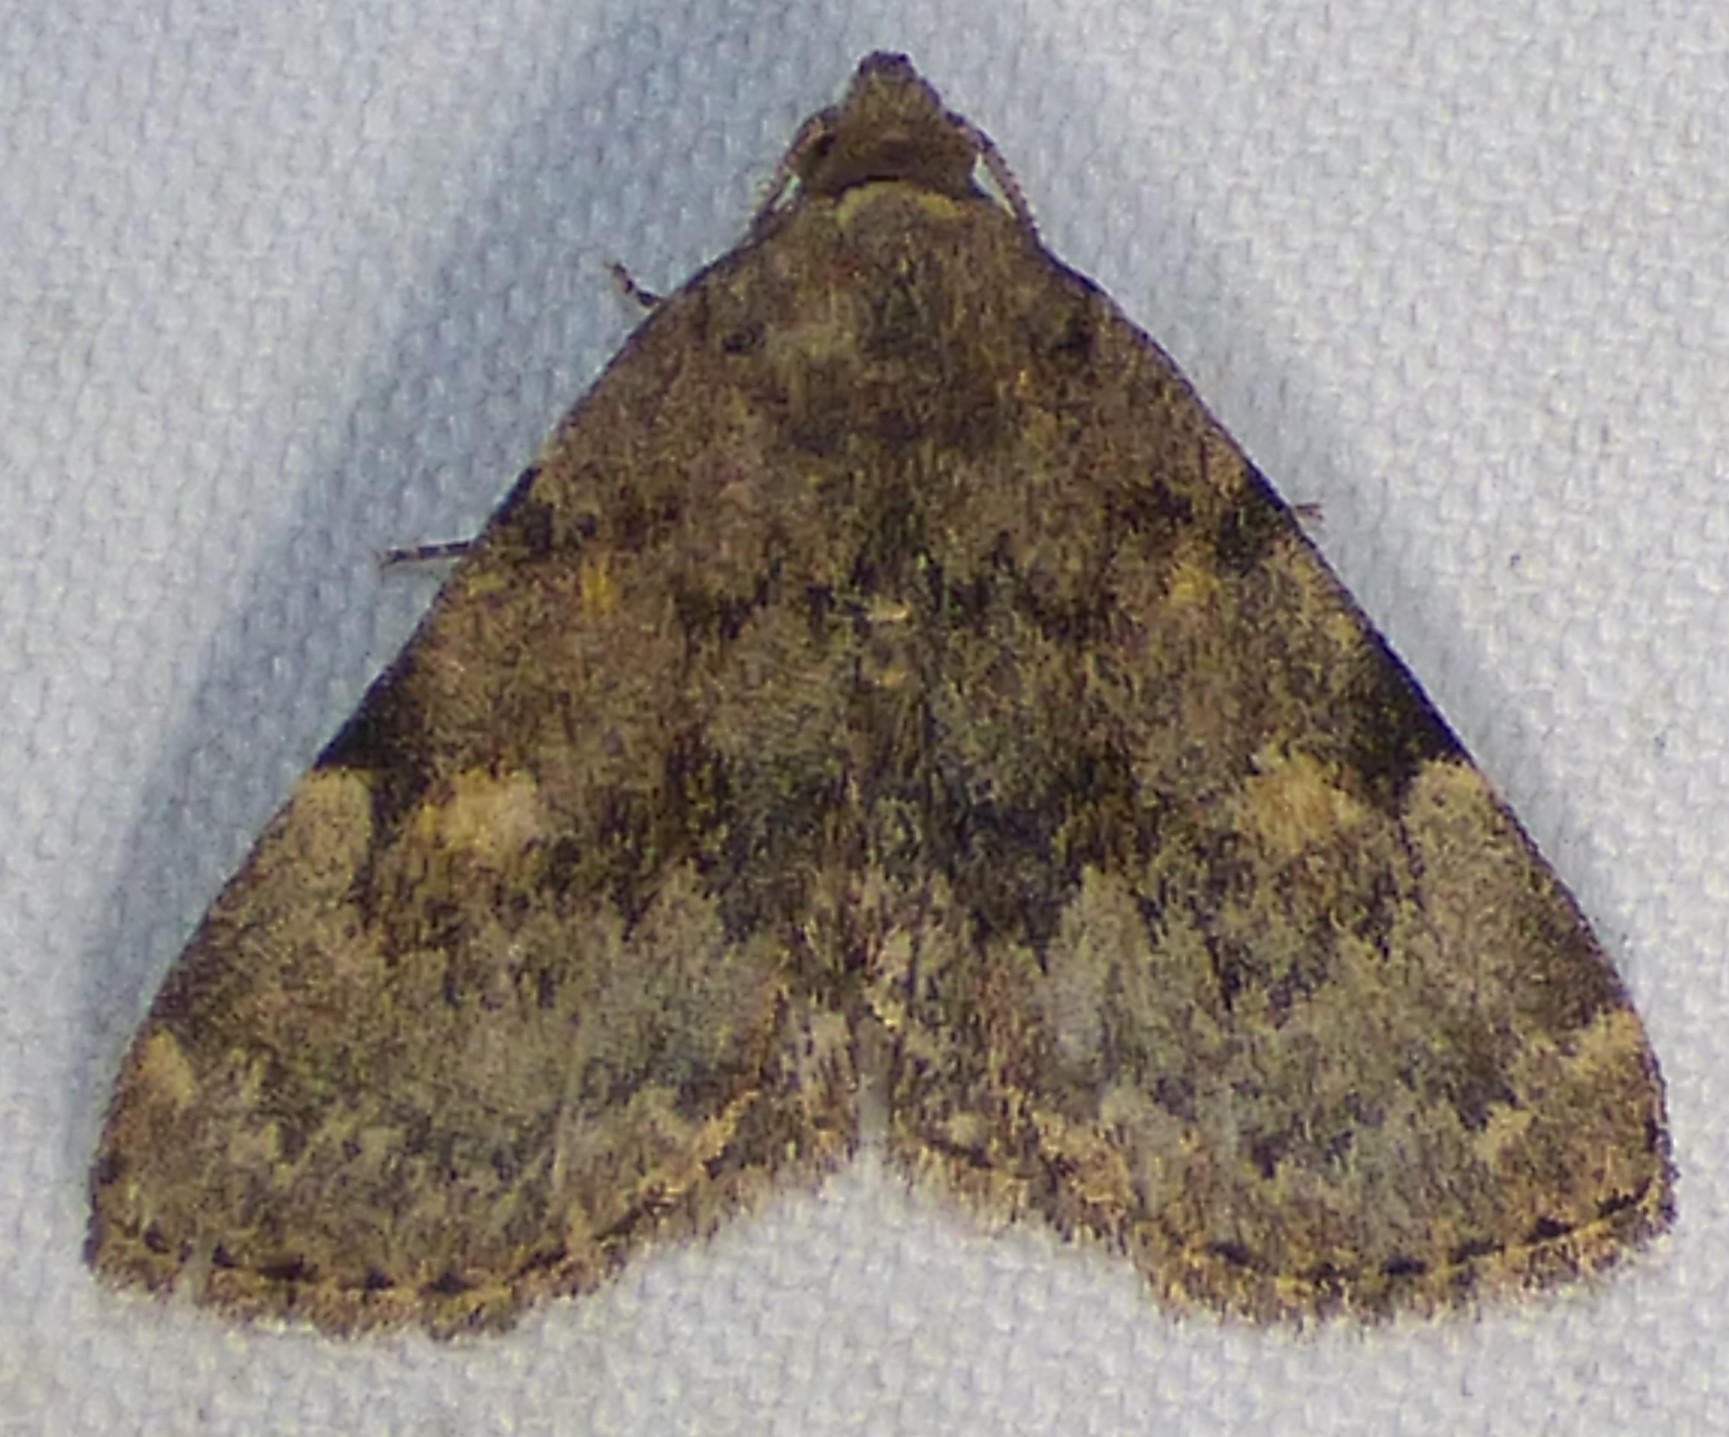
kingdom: Animalia
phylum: Arthropoda
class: Insecta
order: Lepidoptera
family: Erebidae
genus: Idia
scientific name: Idia aemula
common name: Common idia moth
